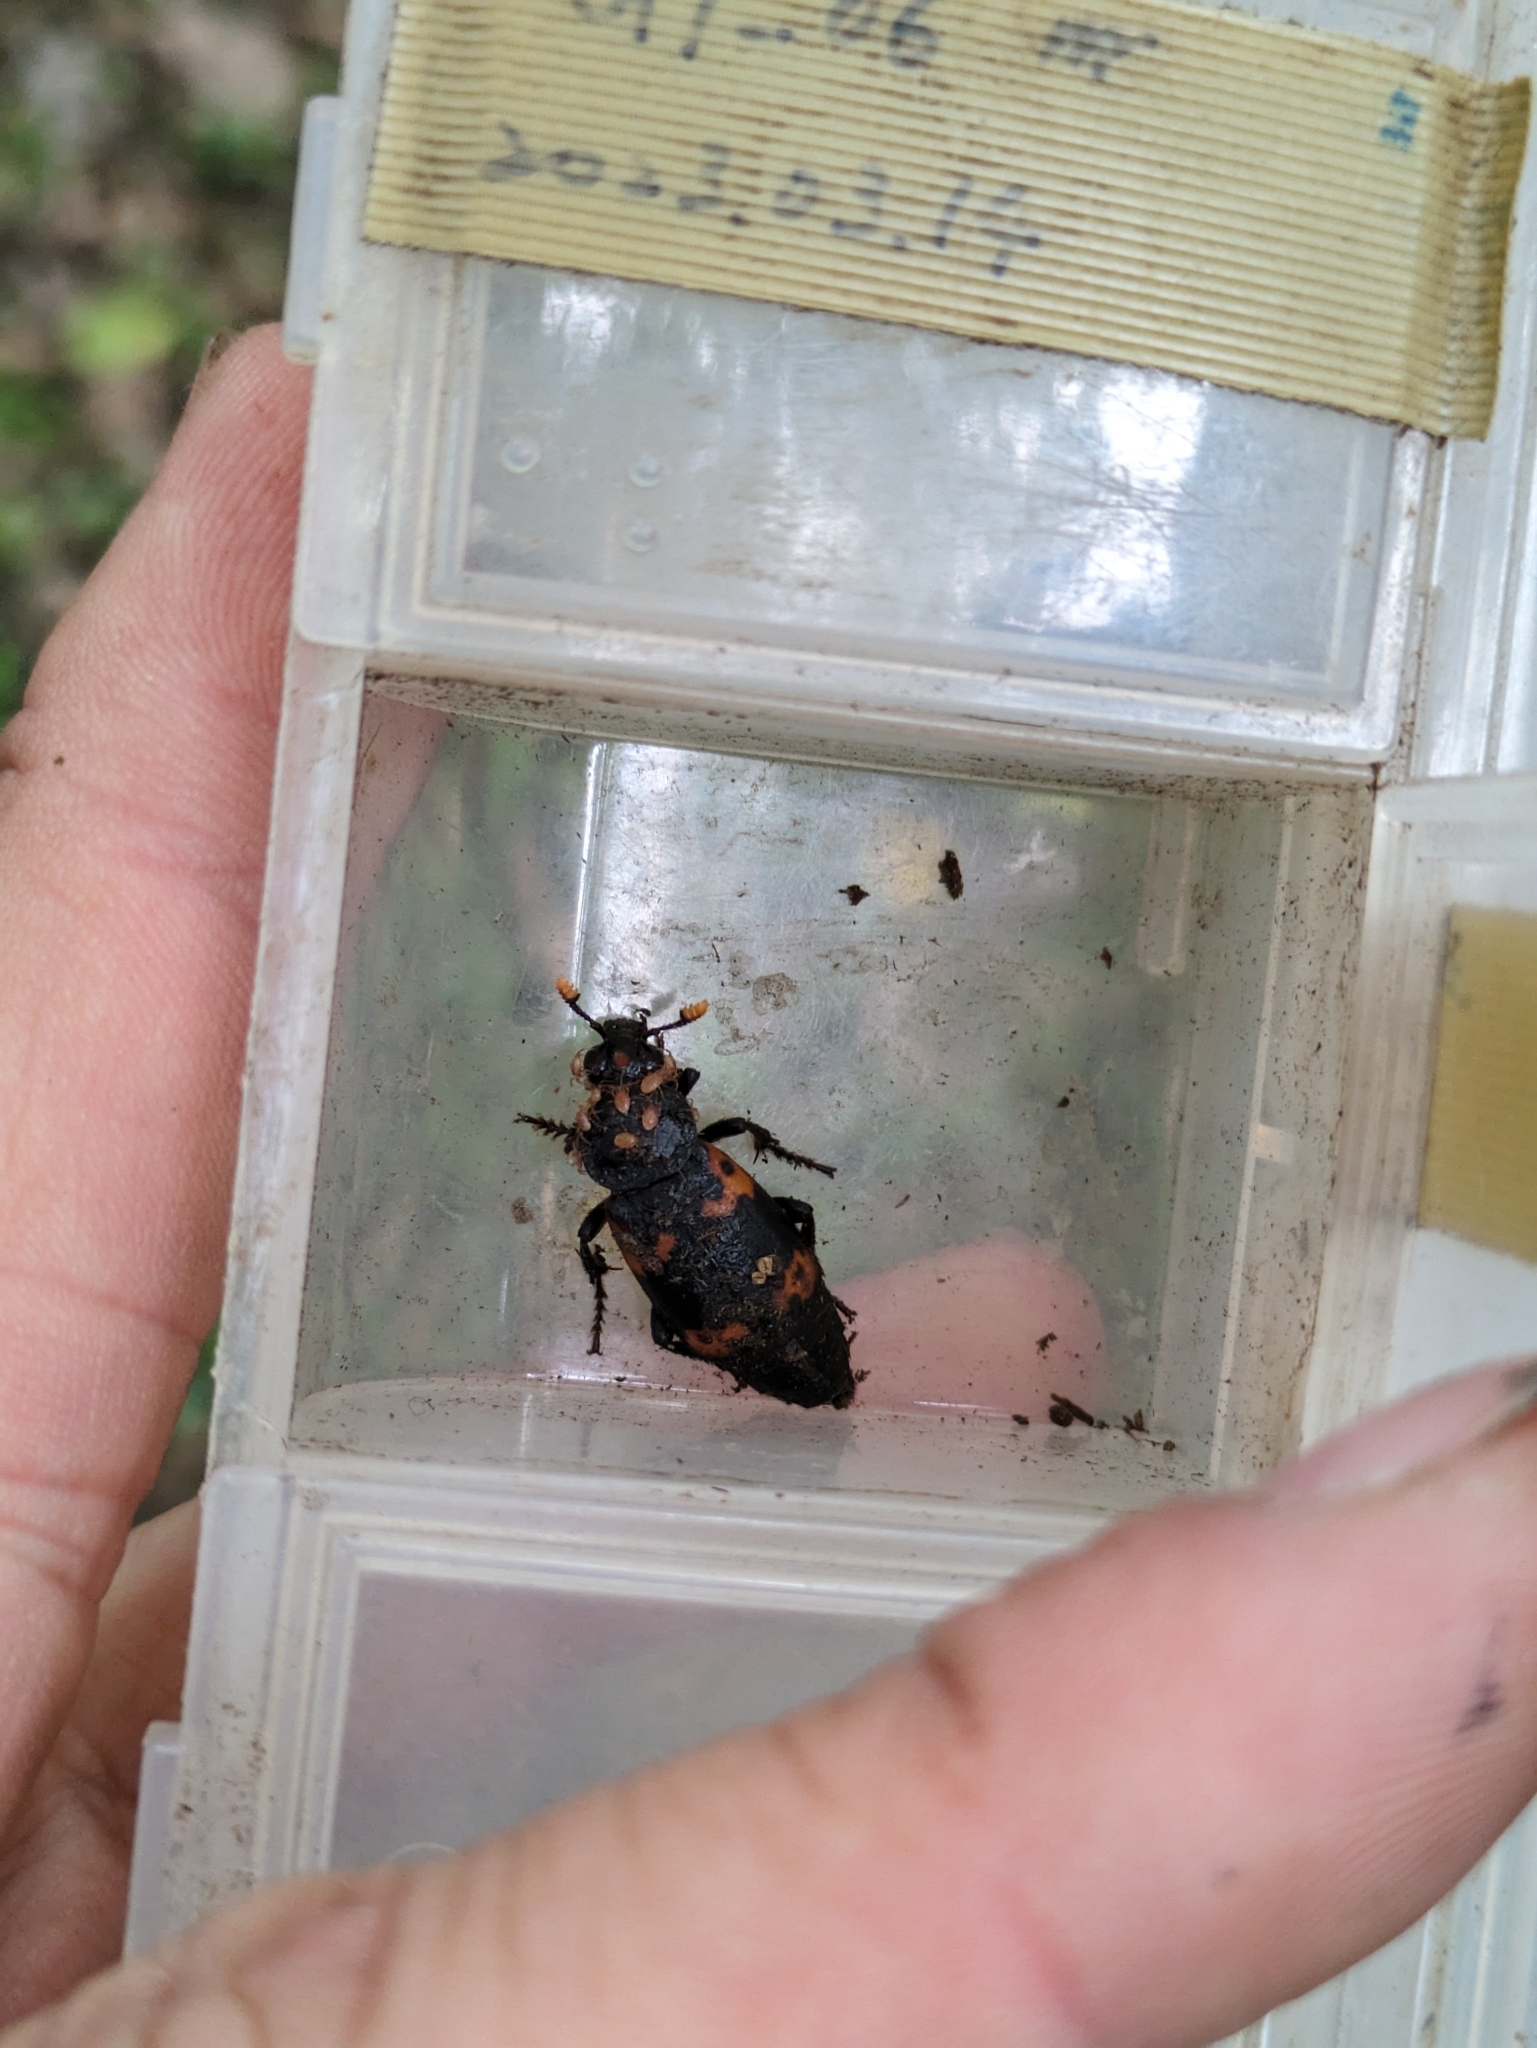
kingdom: Animalia
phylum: Arthropoda
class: Insecta
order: Coleoptera
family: Staphylinidae
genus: Nicrophorus
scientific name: Nicrophorus nepalensis
